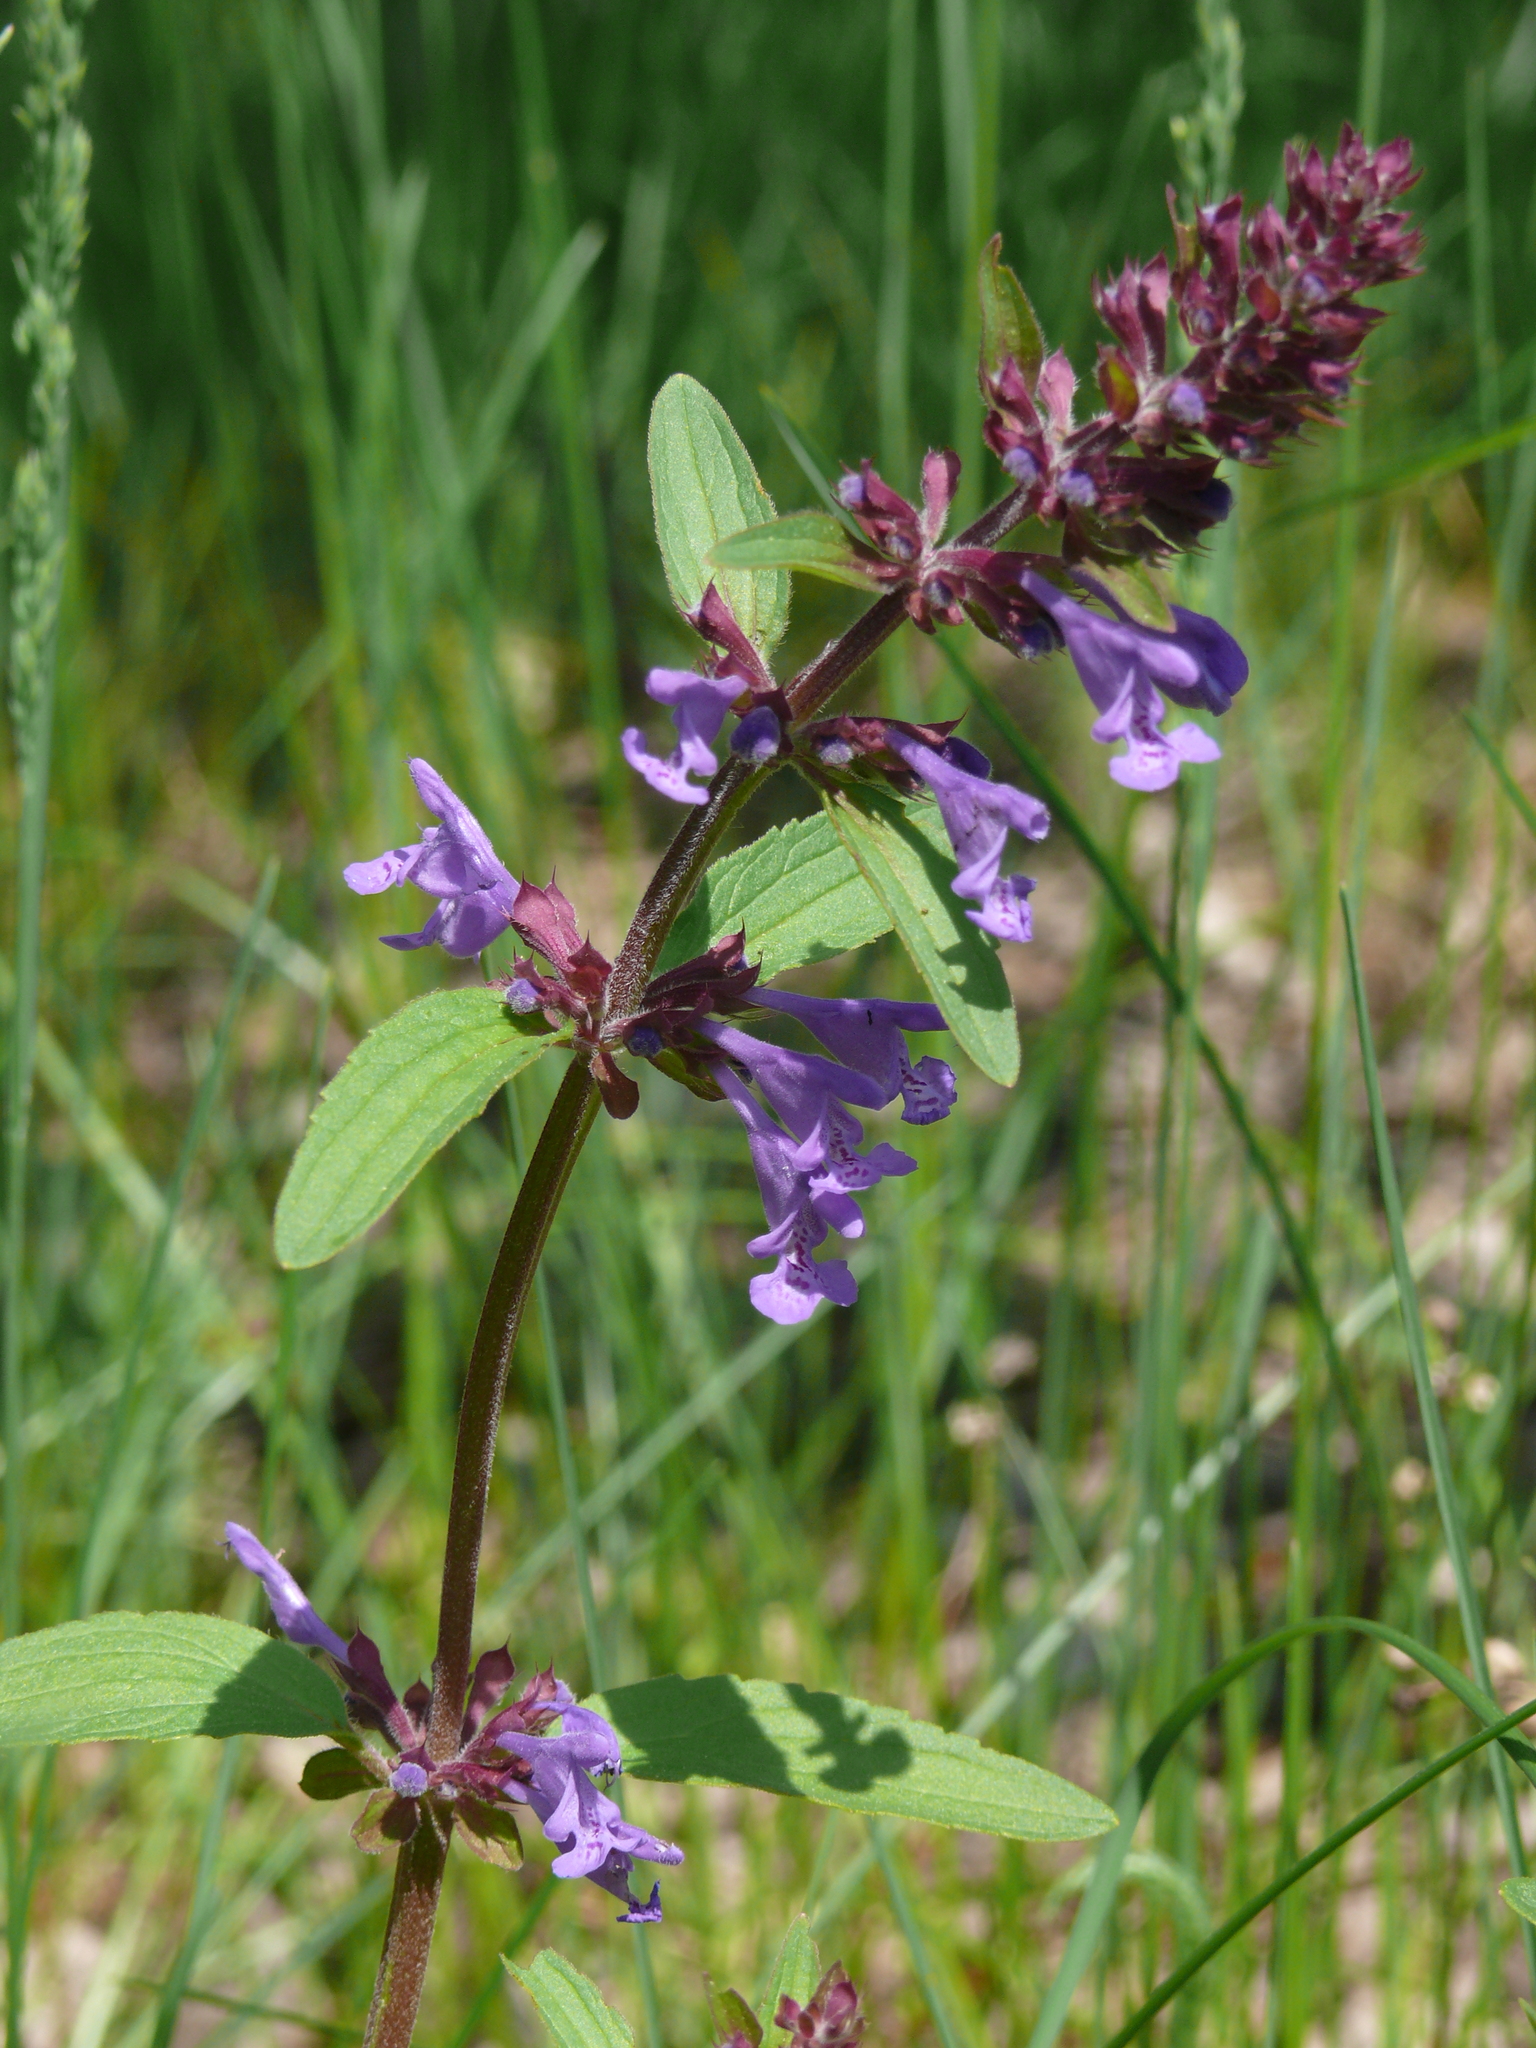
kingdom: Plantae
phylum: Tracheophyta
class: Magnoliopsida
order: Lamiales
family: Lamiaceae
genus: Dracocephalum
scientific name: Dracocephalum nutans
